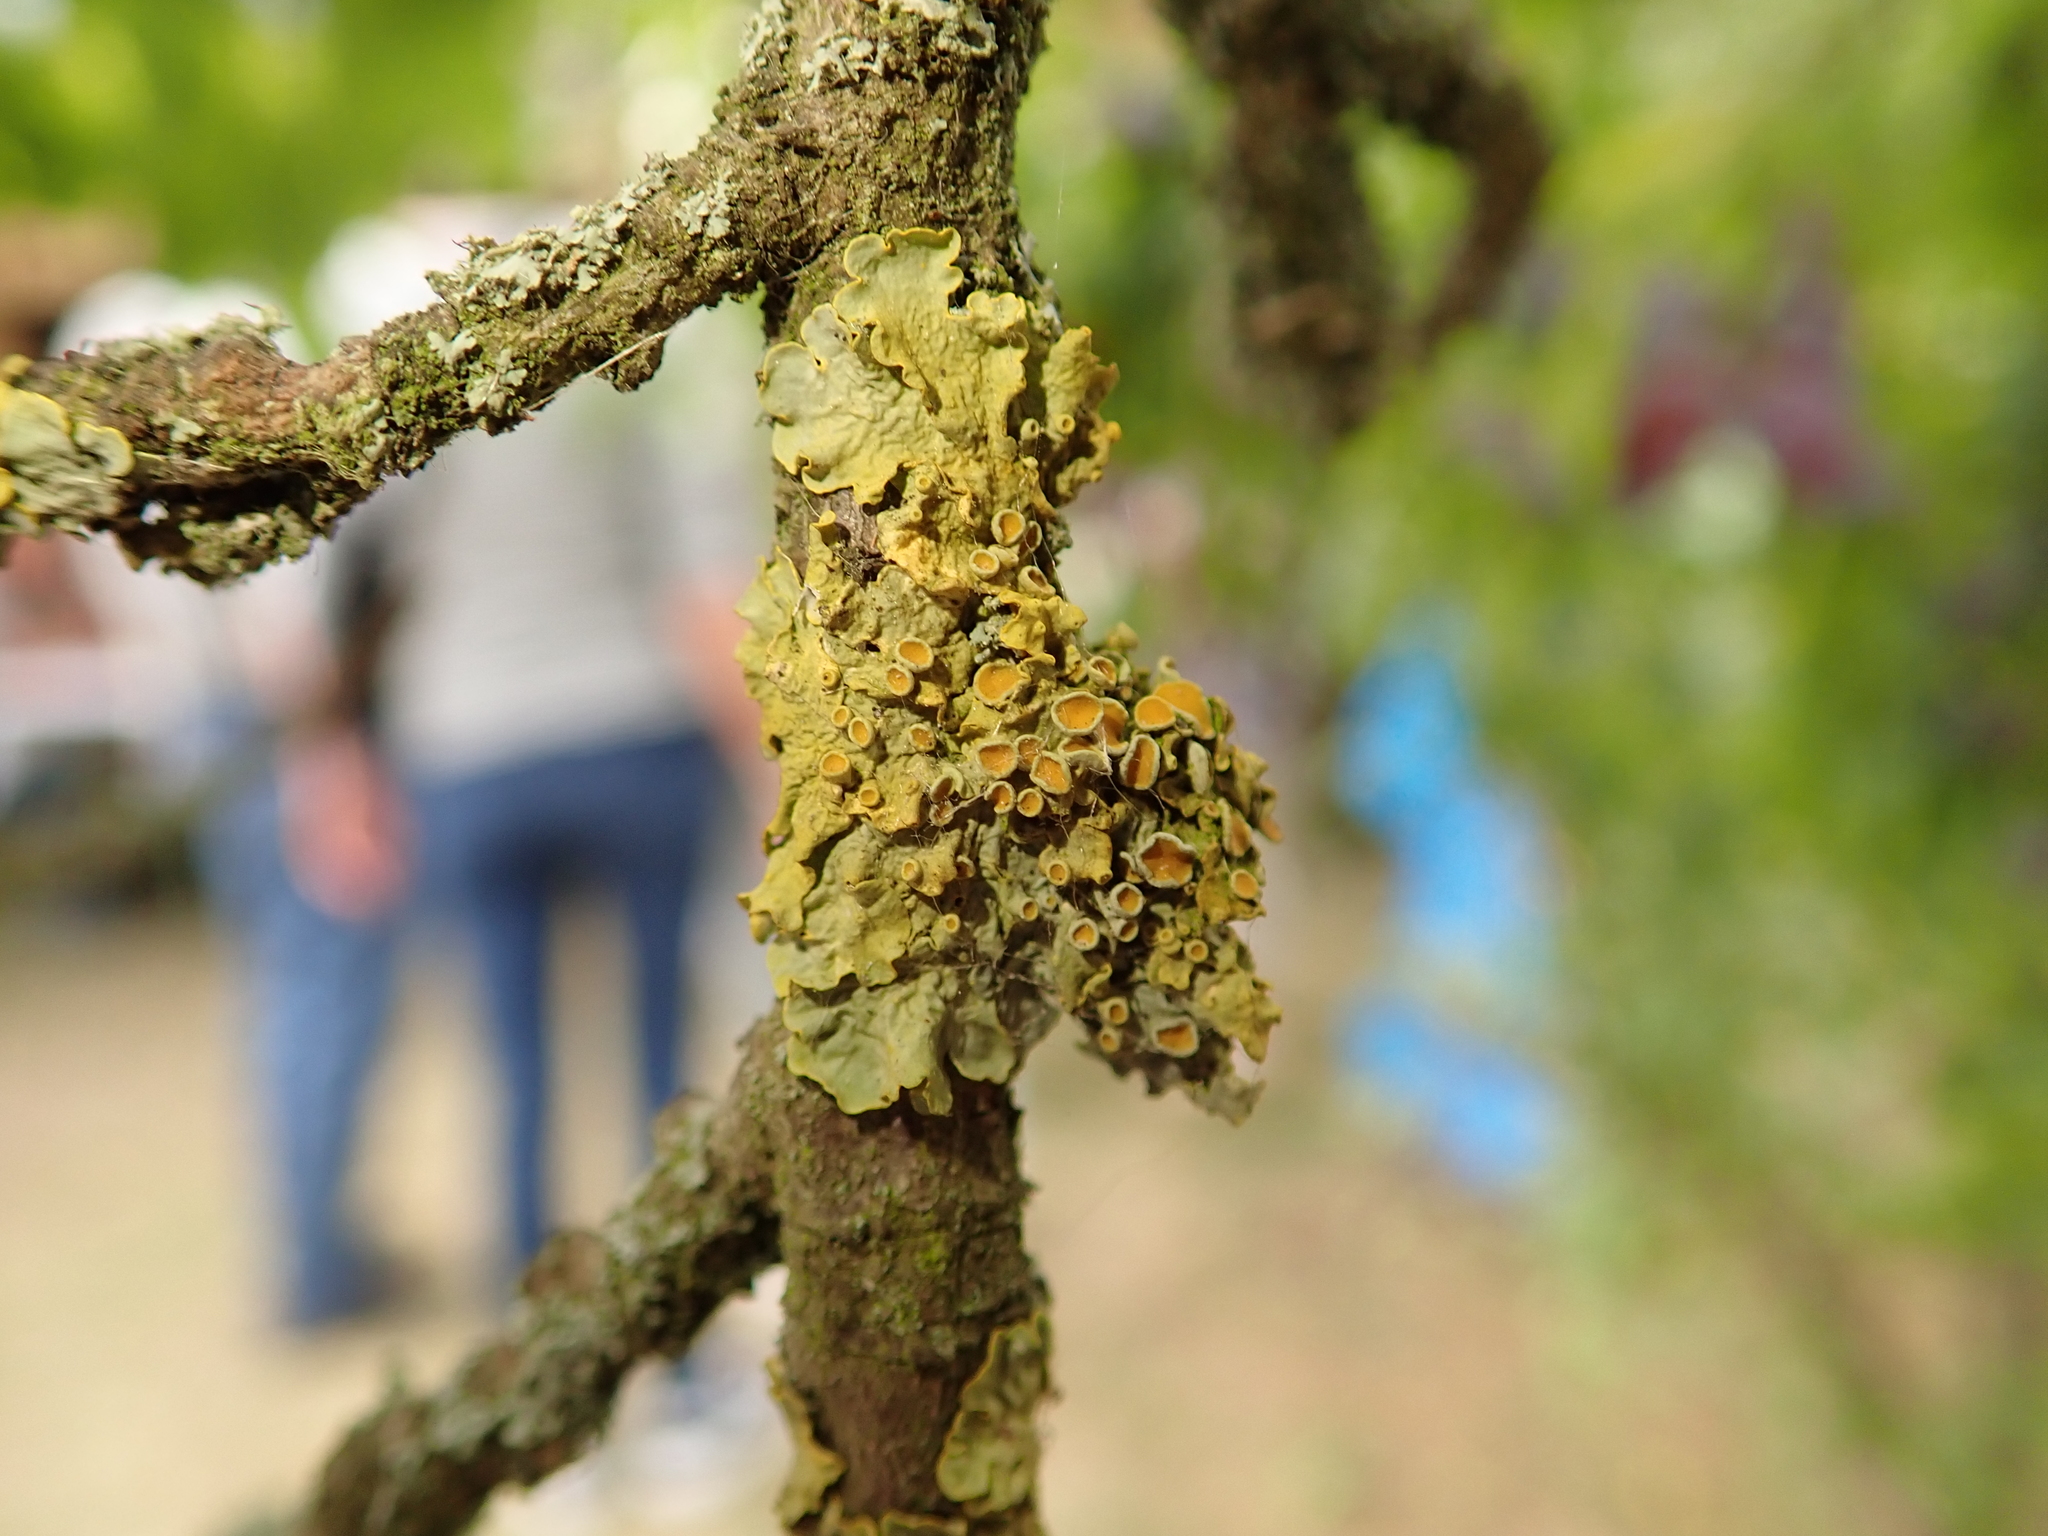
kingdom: Fungi
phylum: Ascomycota
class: Lecanoromycetes
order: Teloschistales
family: Teloschistaceae
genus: Xanthoria
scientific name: Xanthoria parietina
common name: Common orange lichen
